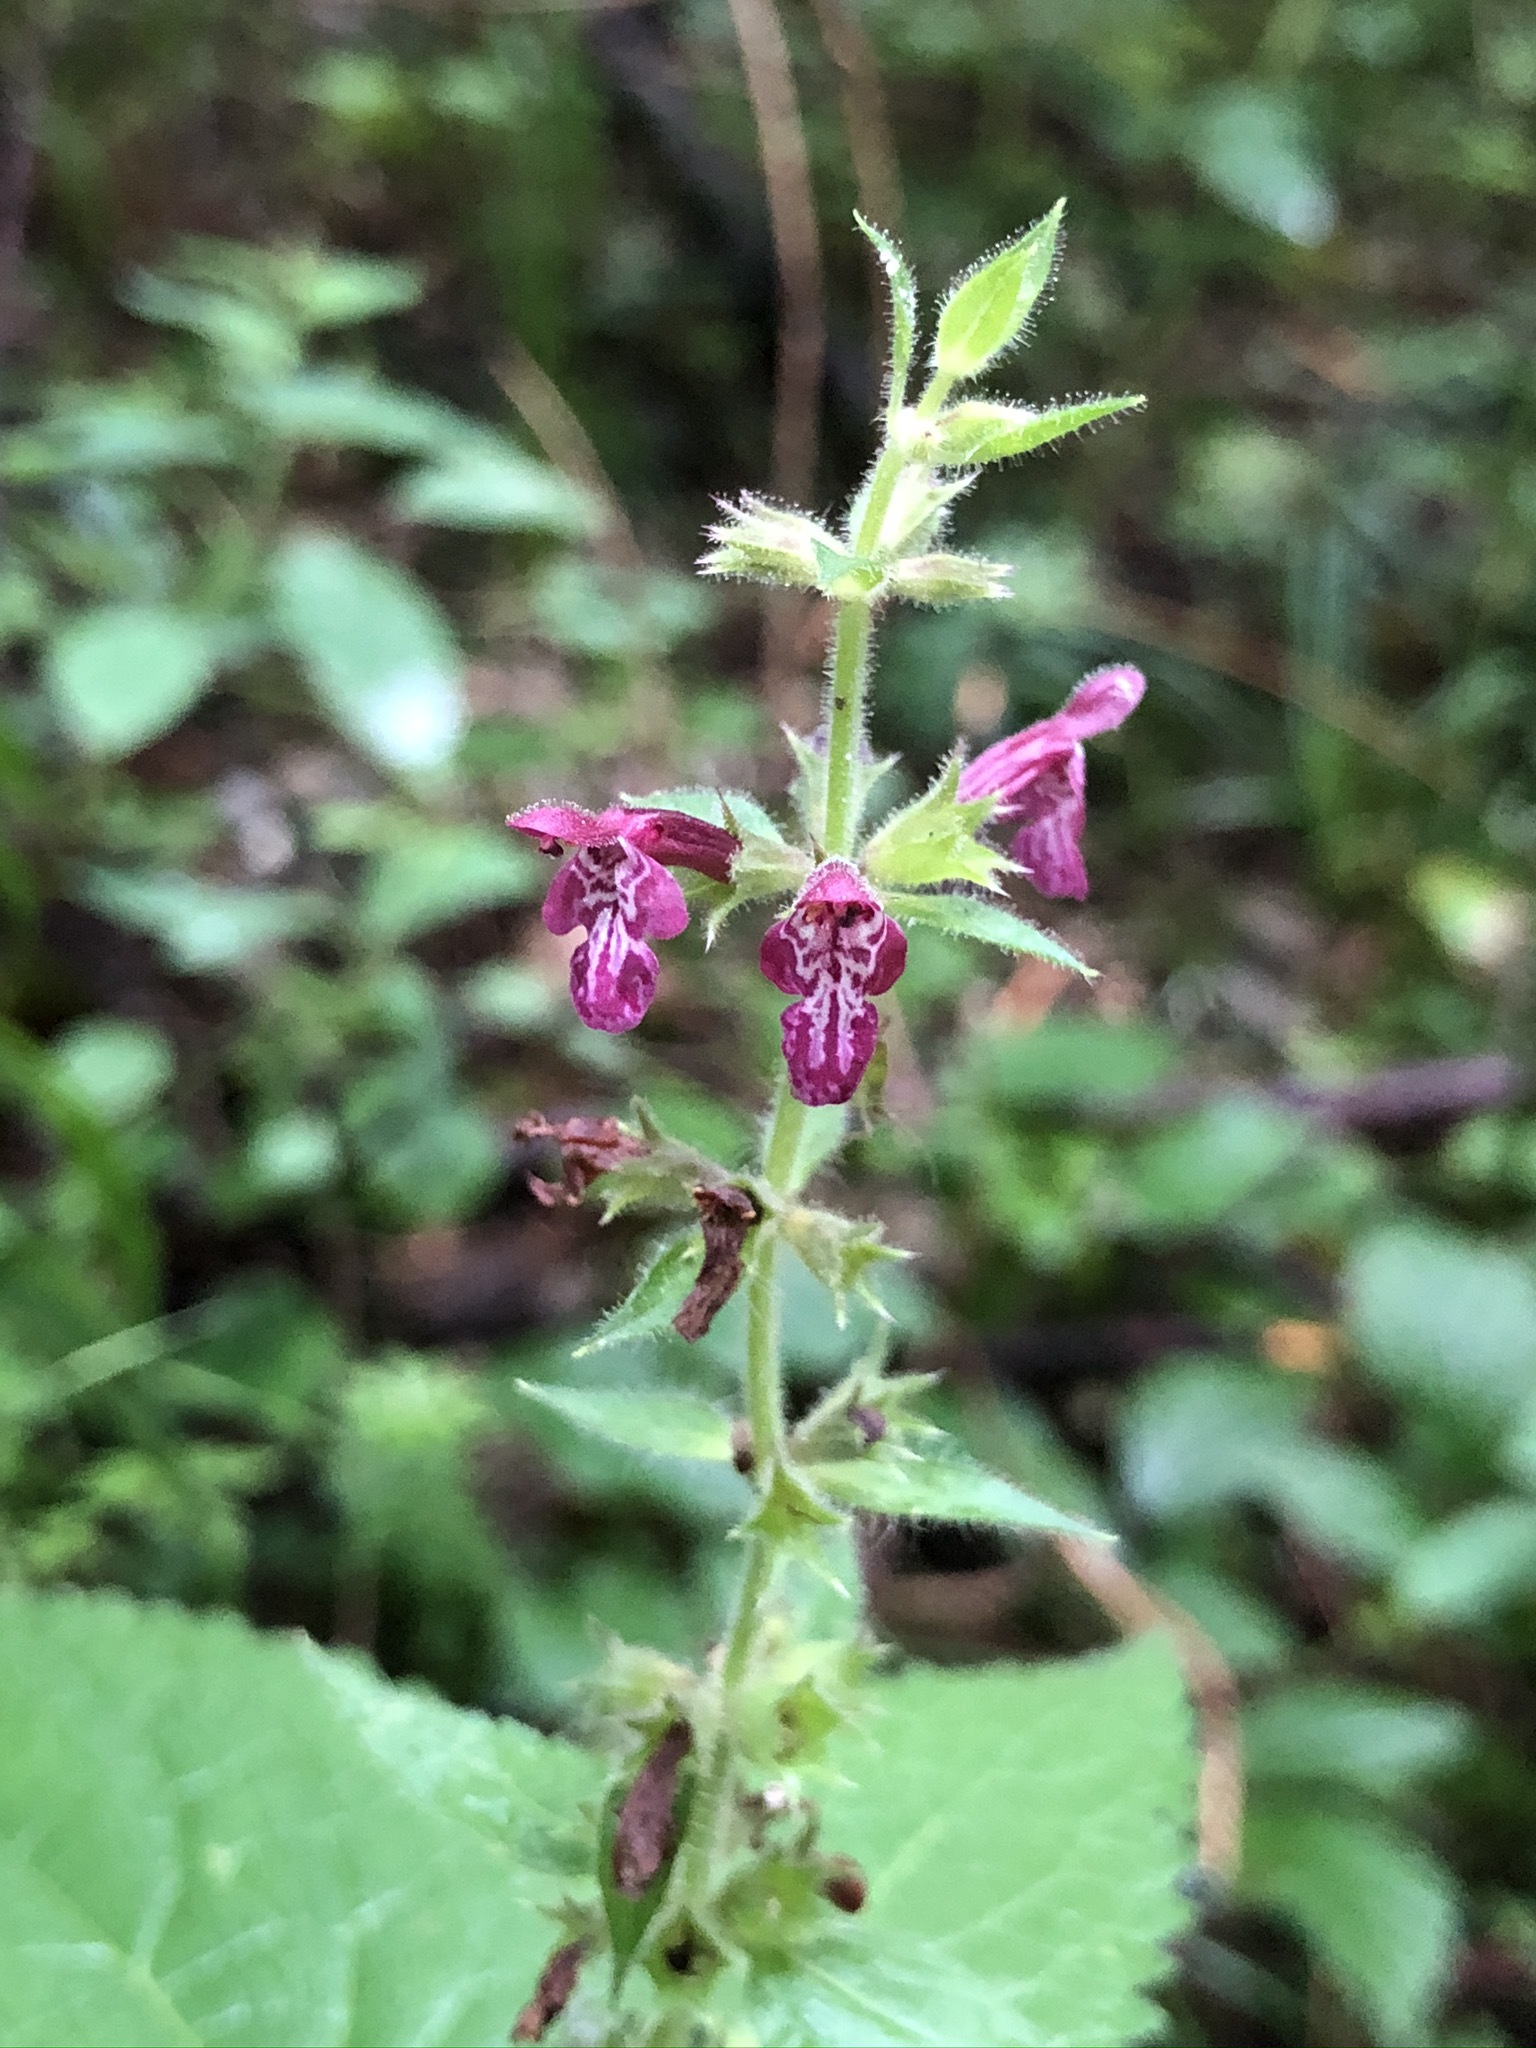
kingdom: Plantae
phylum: Tracheophyta
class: Magnoliopsida
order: Lamiales
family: Lamiaceae
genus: Stachys
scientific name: Stachys sylvatica
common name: Hedge woundwort
